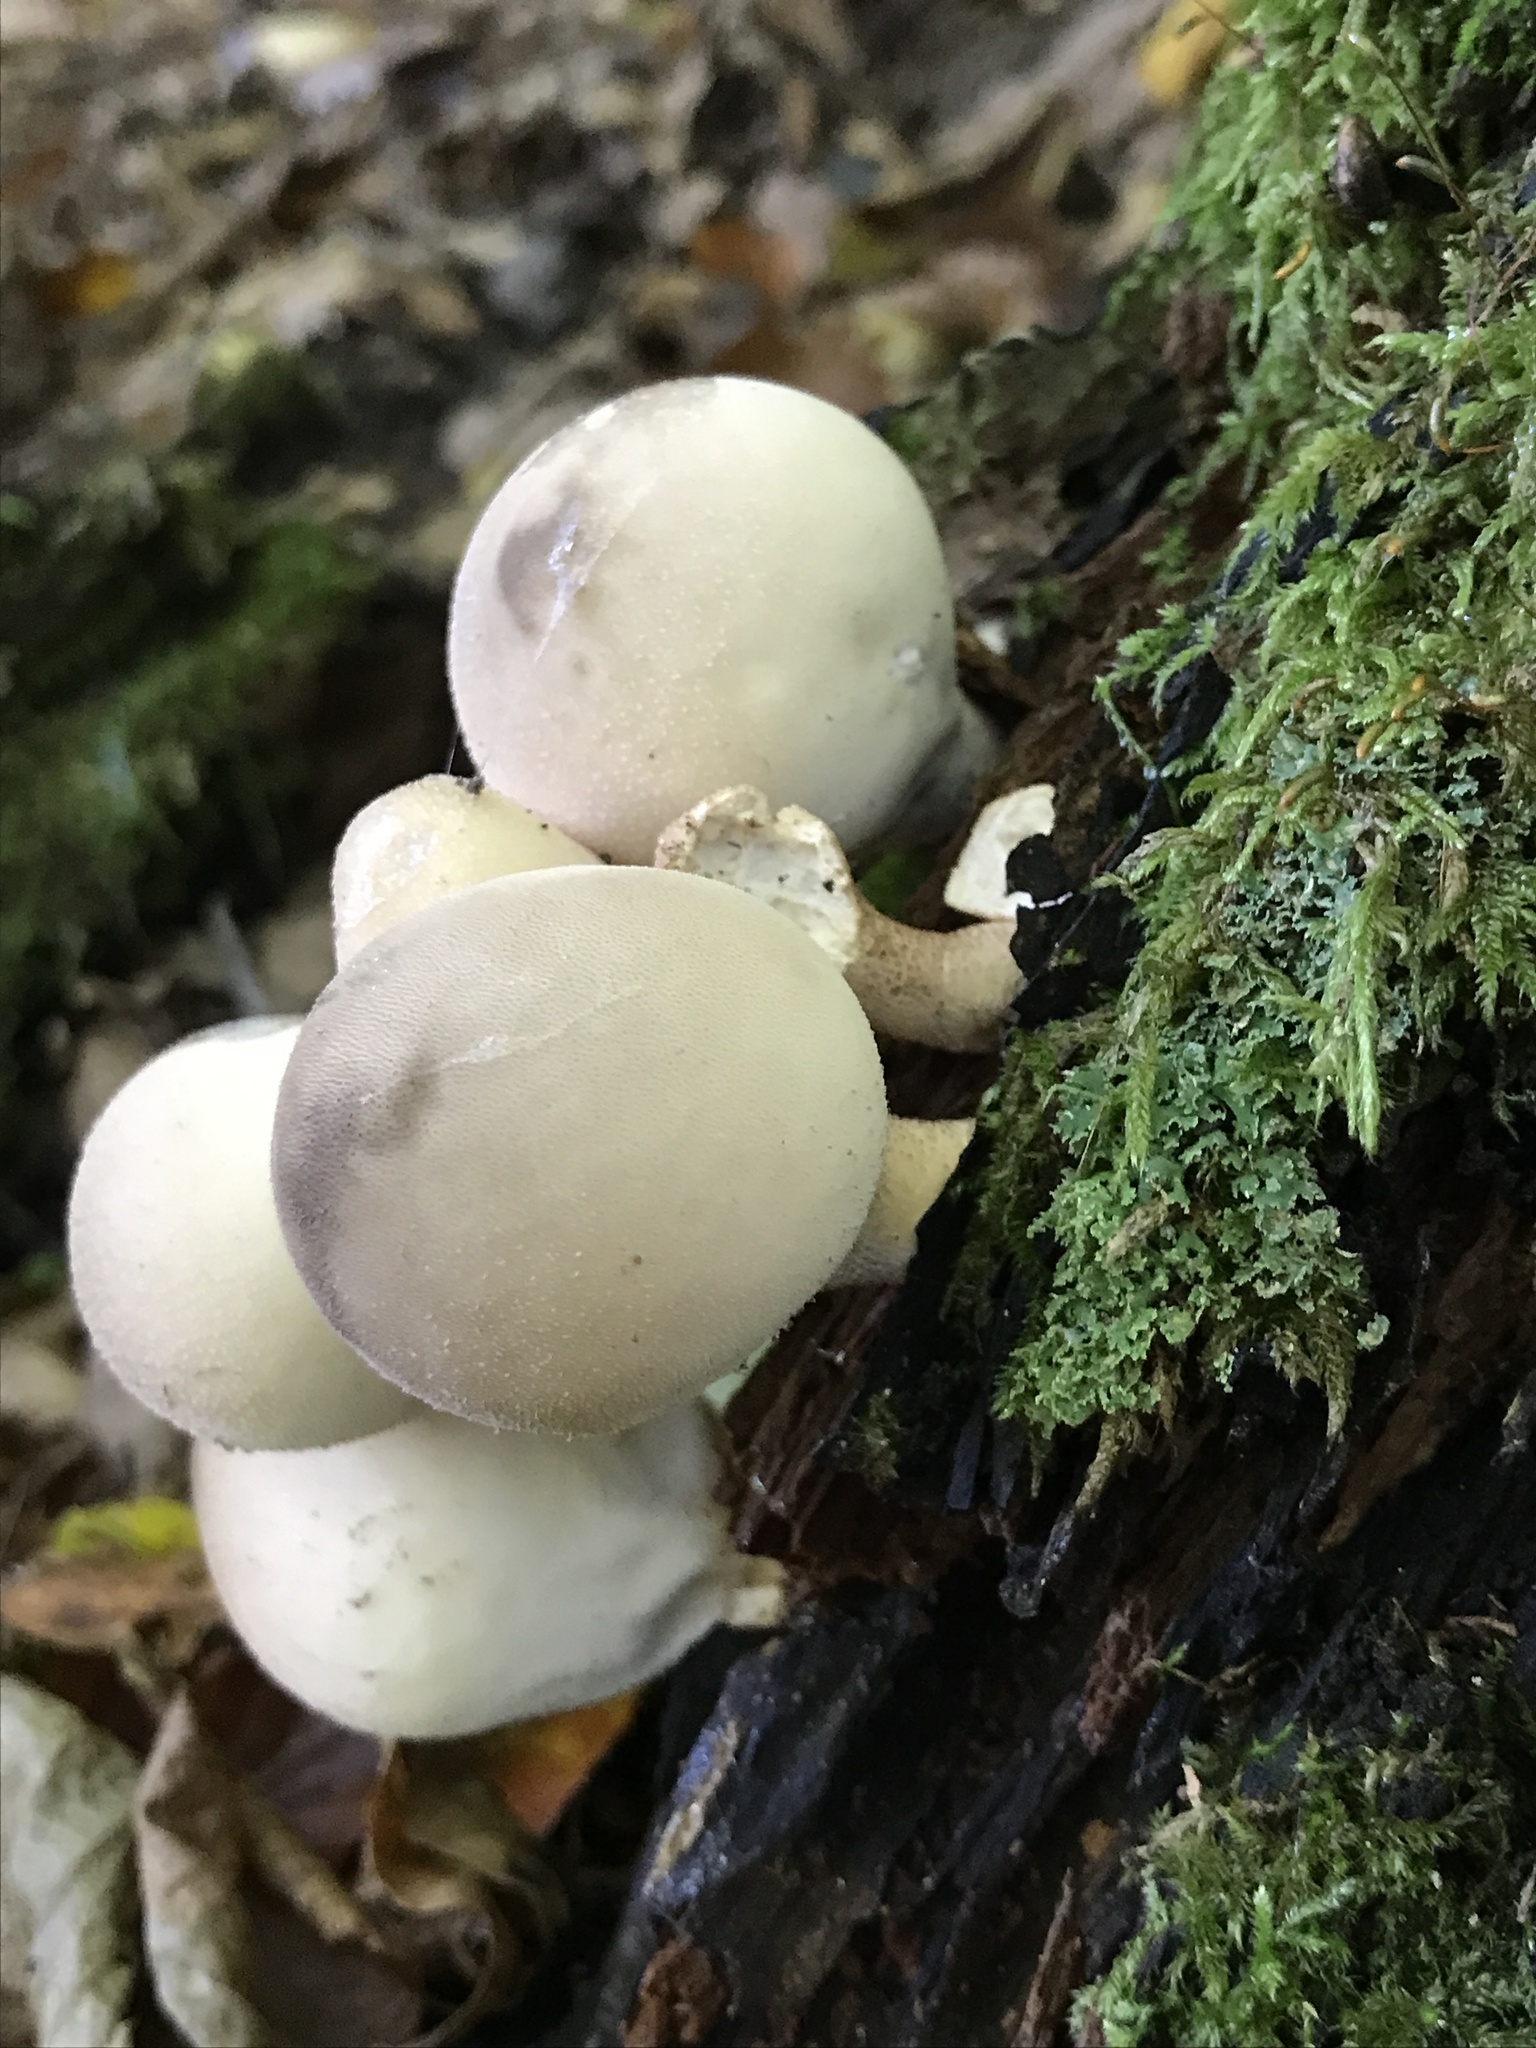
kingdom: Fungi
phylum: Basidiomycota
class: Agaricomycetes
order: Agaricales
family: Lycoperdaceae
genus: Apioperdon
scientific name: Apioperdon pyriforme
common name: Pear-shaped puffball
